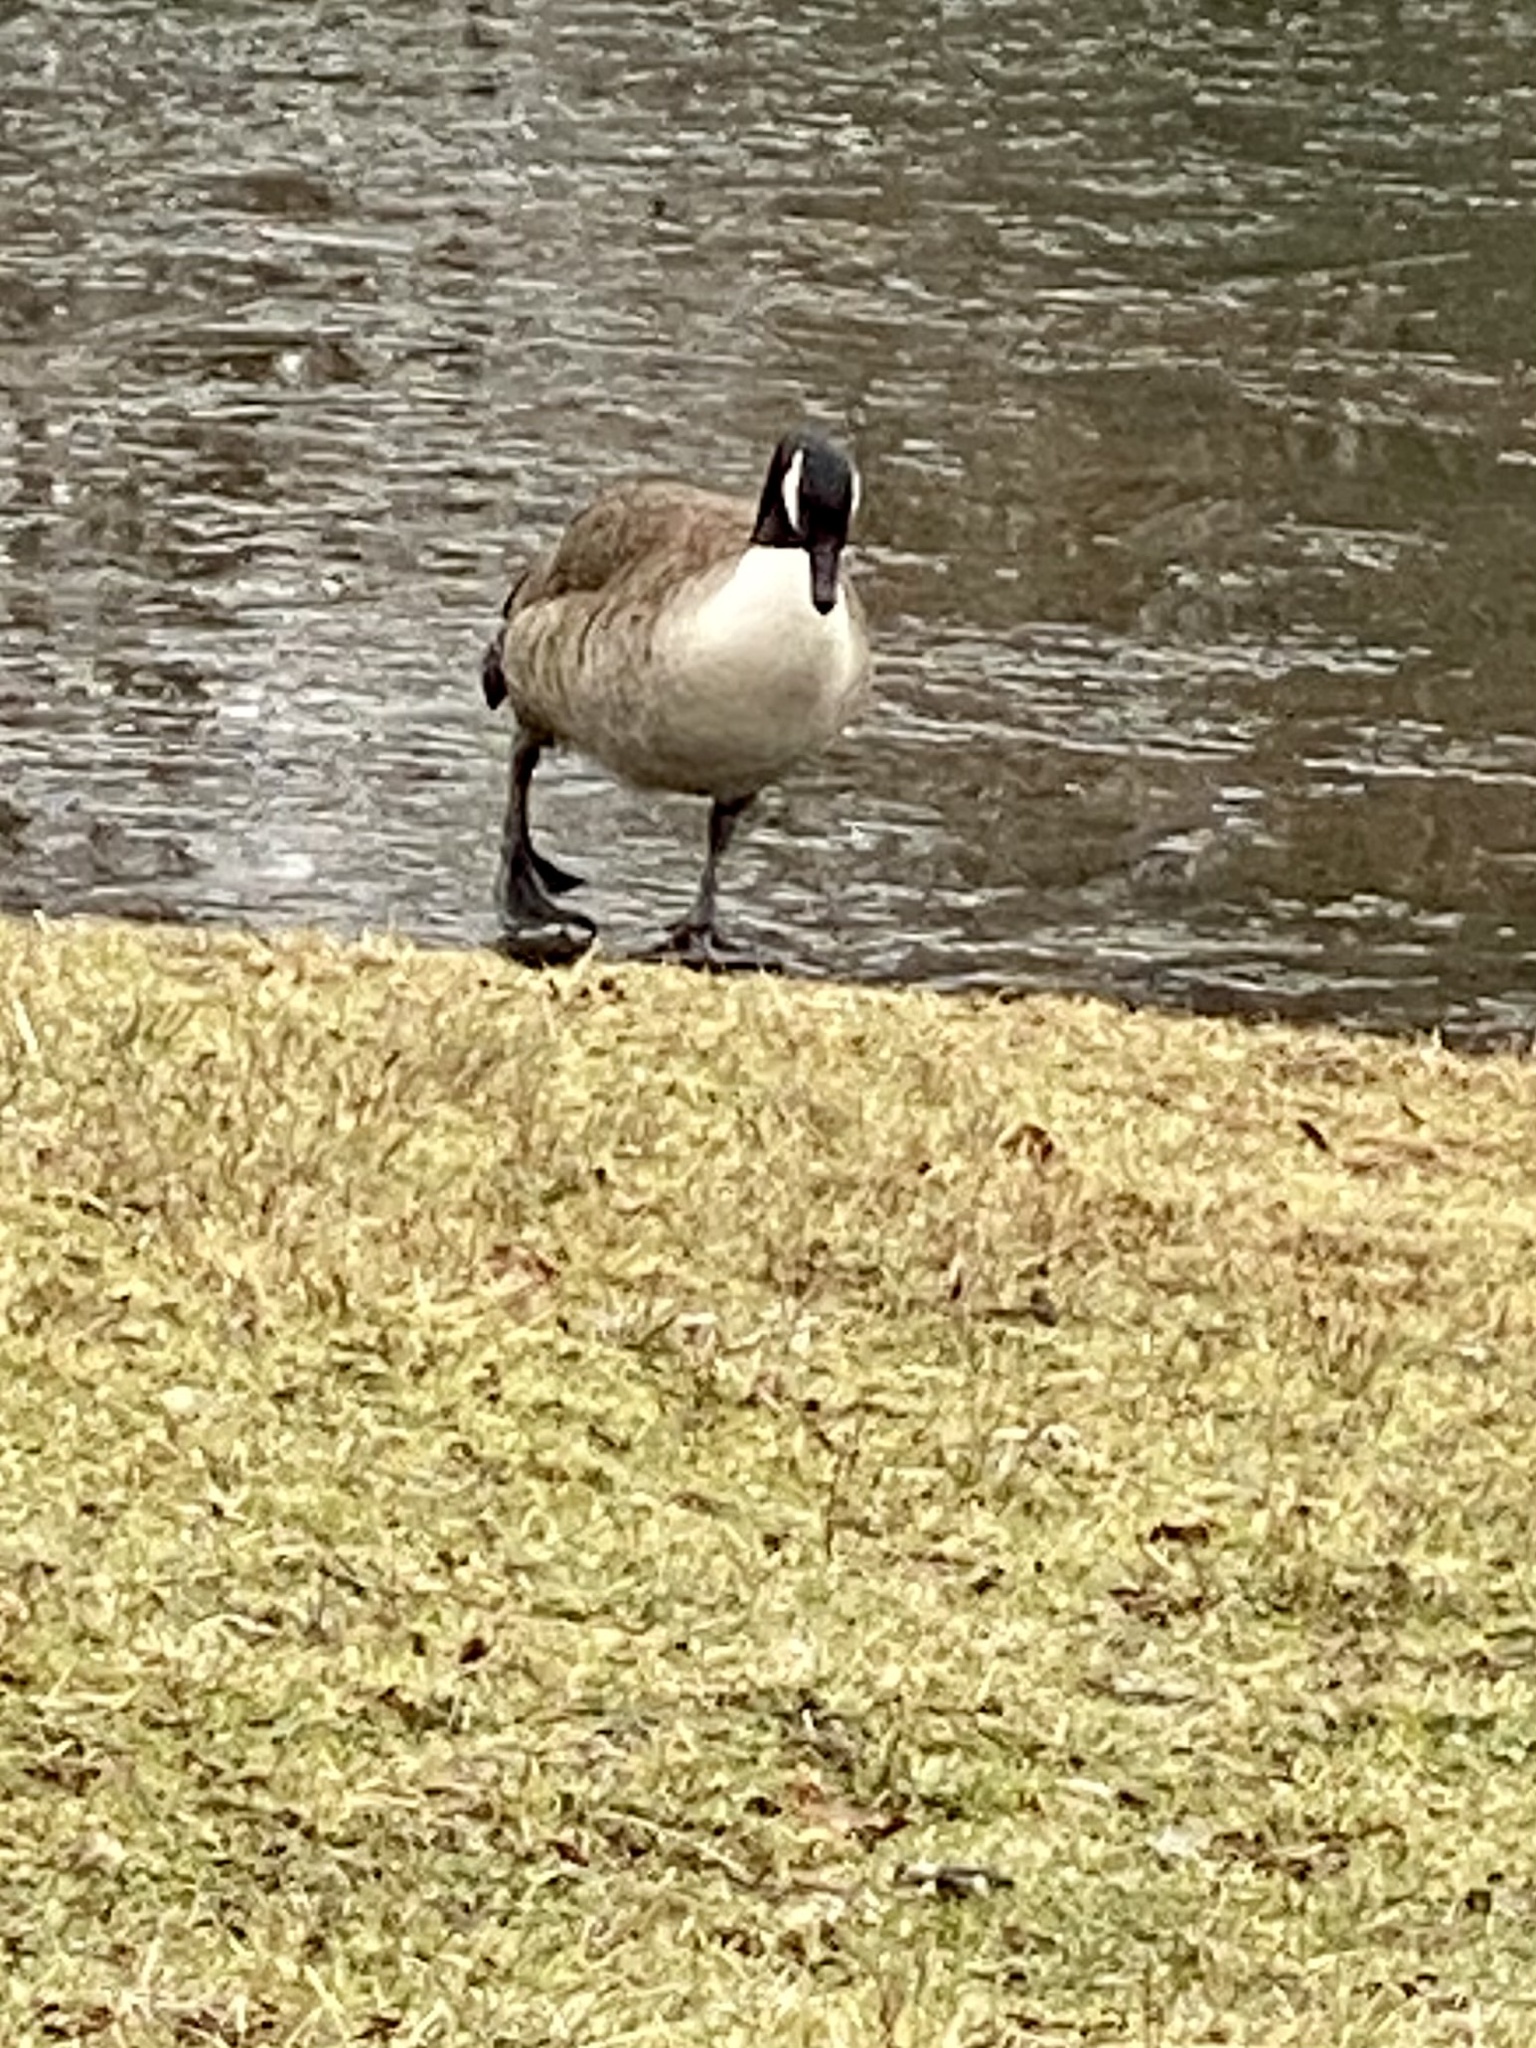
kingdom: Animalia
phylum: Chordata
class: Aves
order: Anseriformes
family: Anatidae
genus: Branta
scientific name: Branta canadensis
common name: Canada goose
